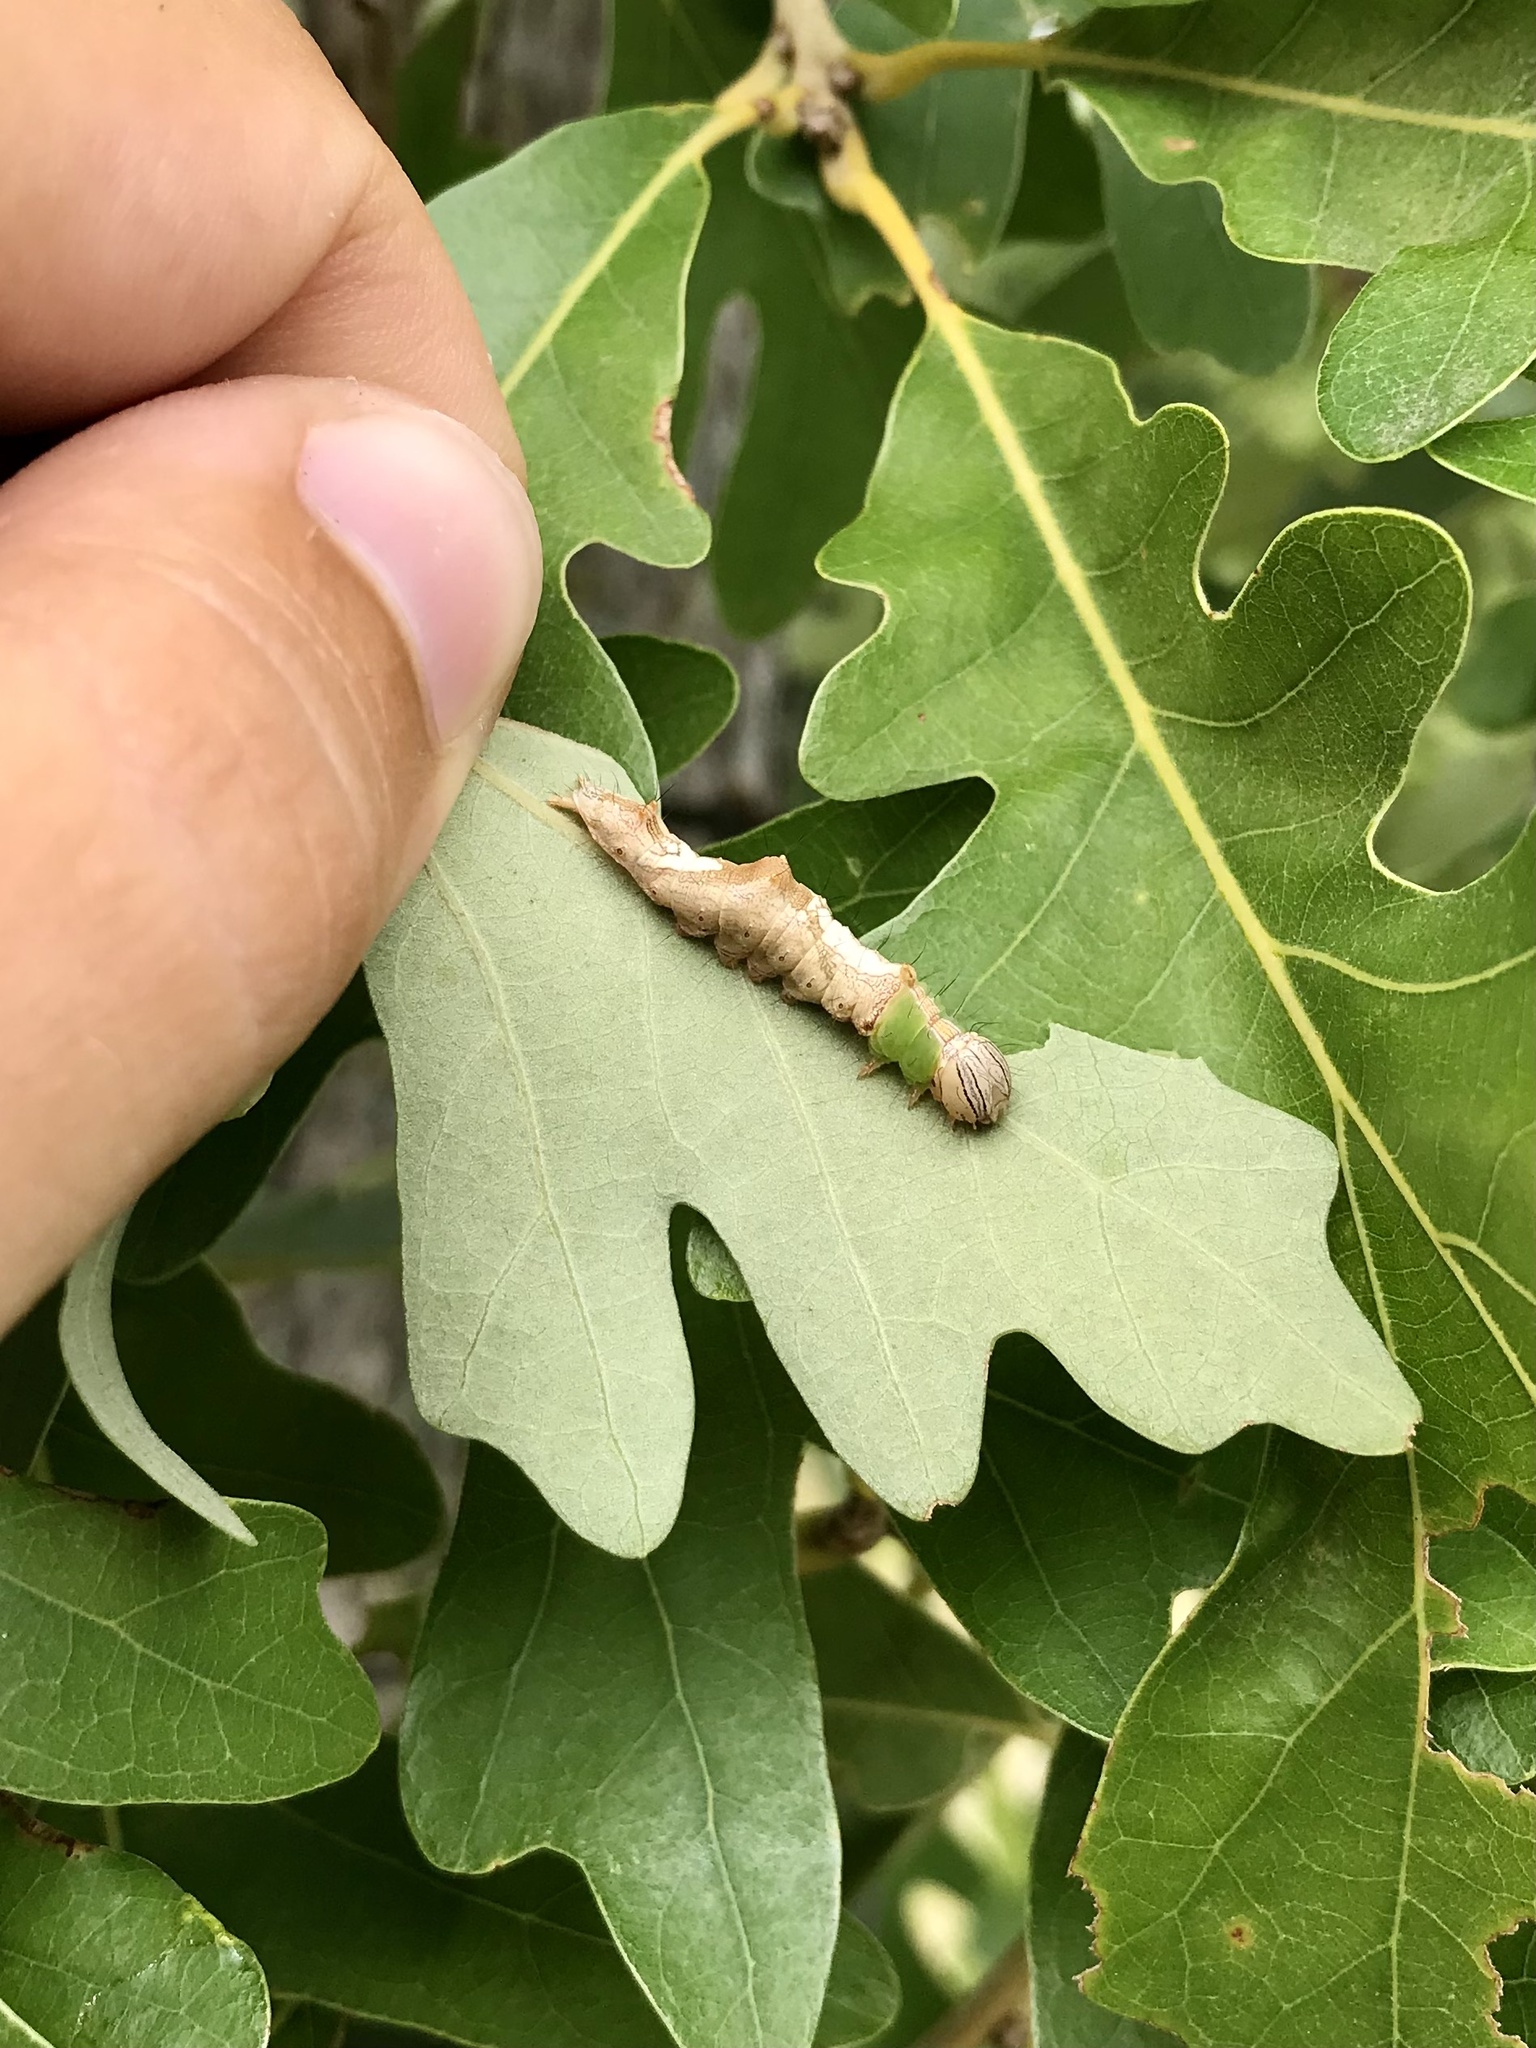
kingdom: Animalia
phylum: Arthropoda
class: Insecta
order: Lepidoptera
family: Notodontidae
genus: Schizura
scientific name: Schizura ipomaeae
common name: Morning-glory prominent
